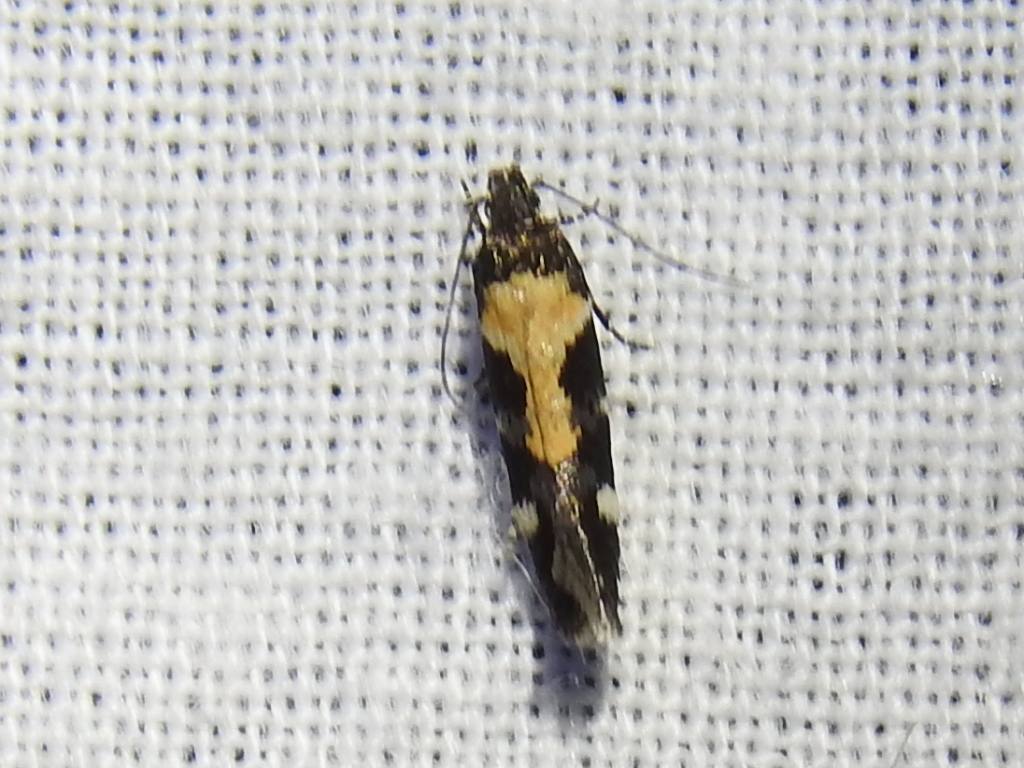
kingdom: Animalia
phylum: Arthropoda
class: Insecta
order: Lepidoptera
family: Gelechiidae
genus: Stegasta
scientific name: Stegasta bosqueella
